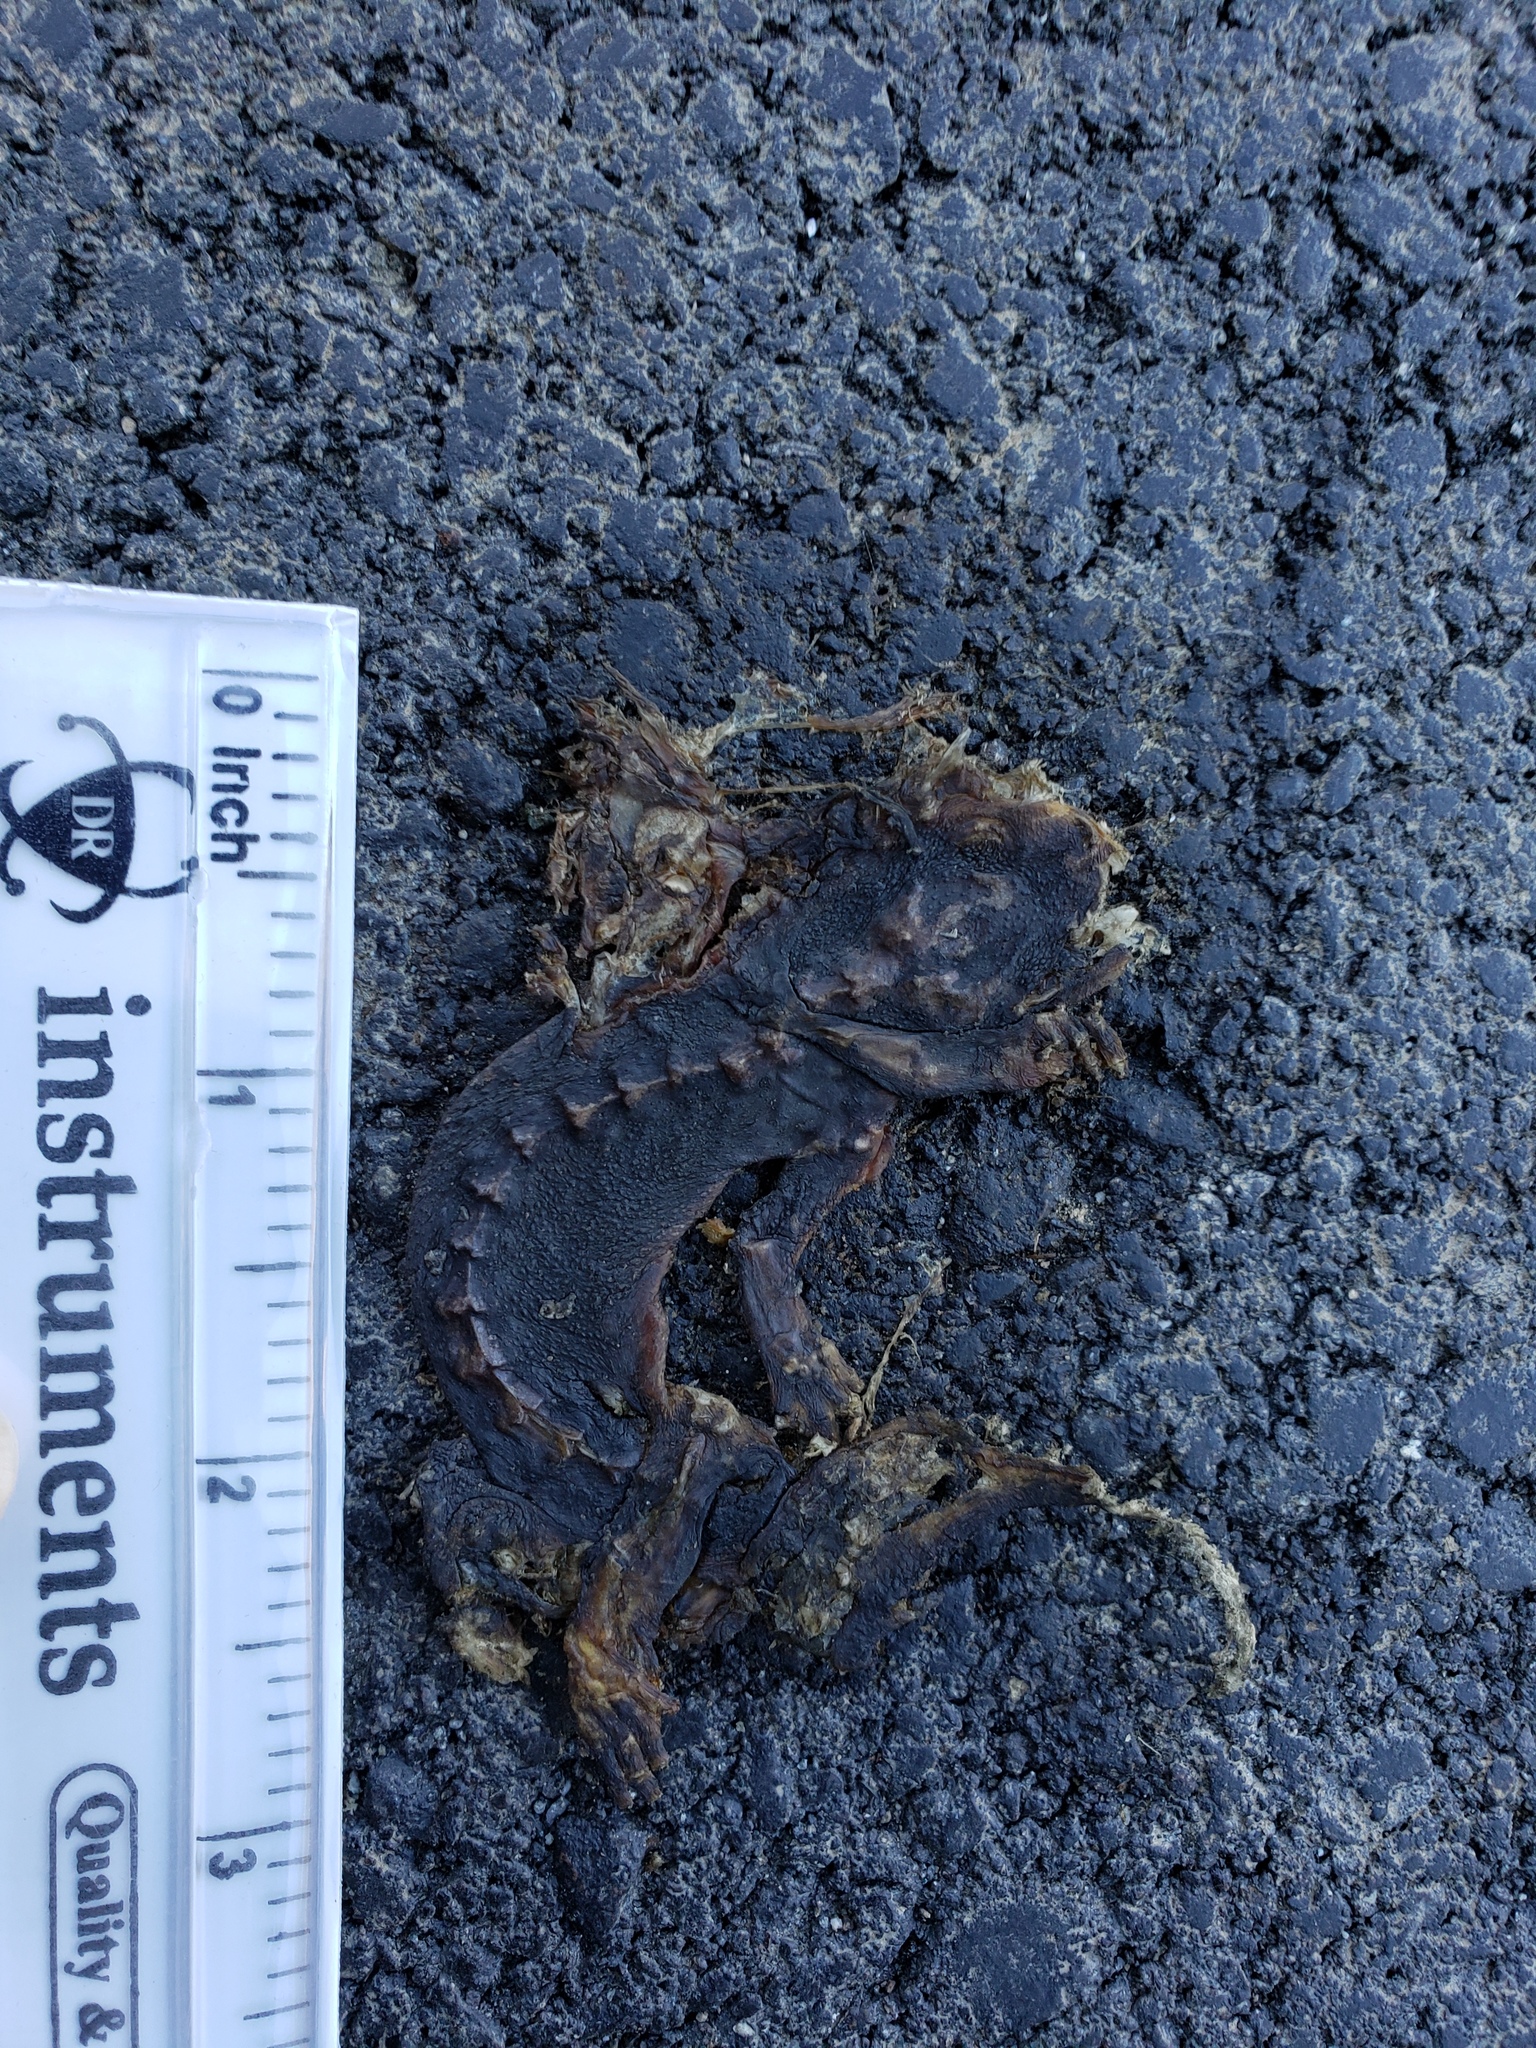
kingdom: Animalia
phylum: Chordata
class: Amphibia
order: Caudata
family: Salamandridae
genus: Taricha
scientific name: Taricha
